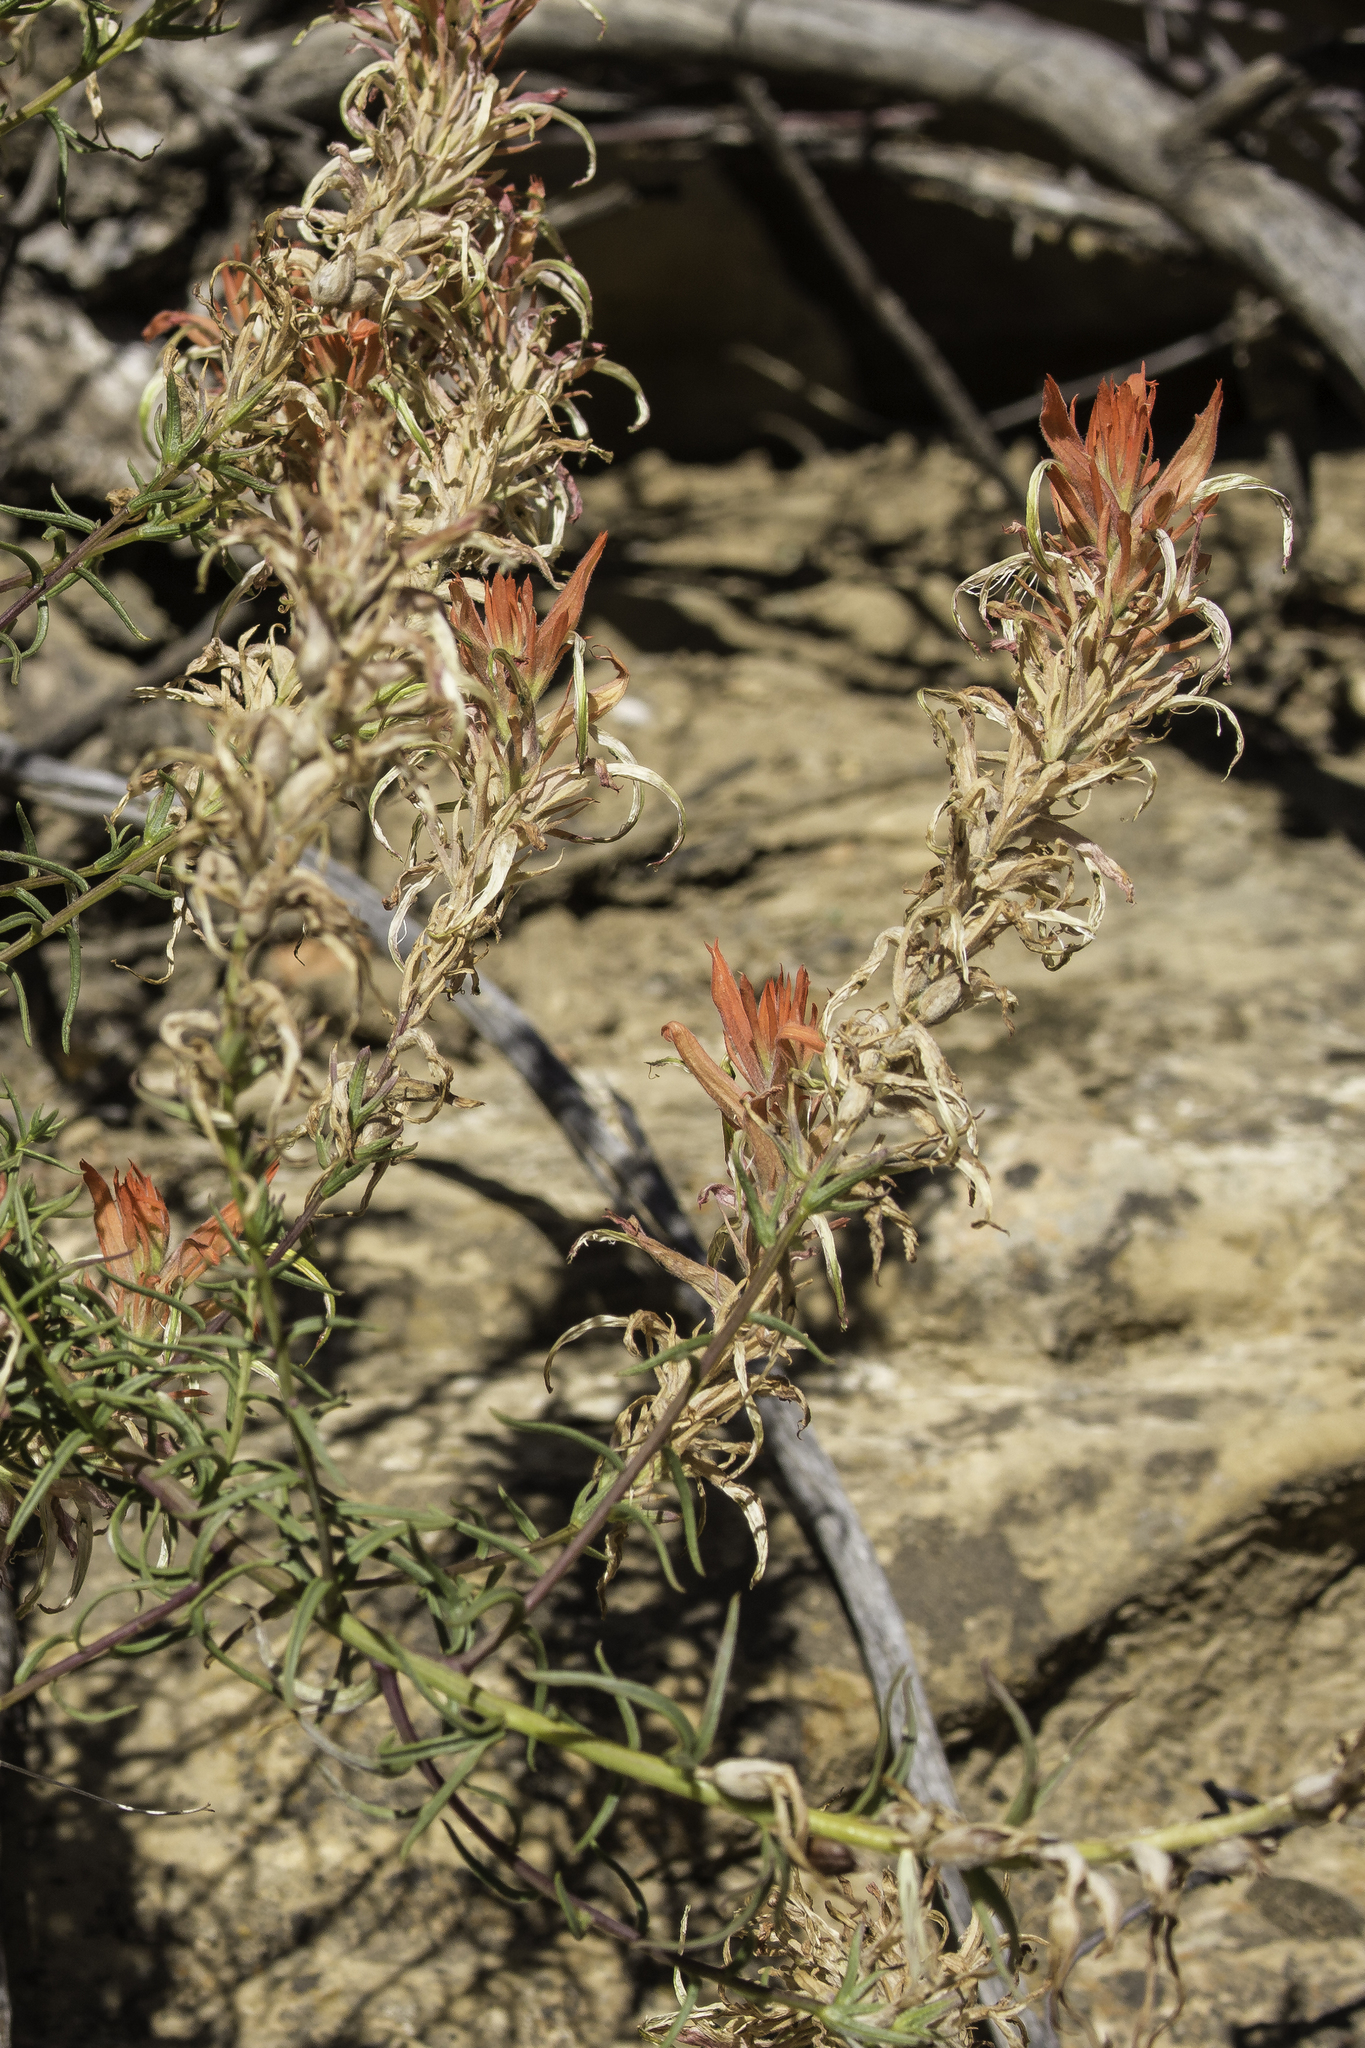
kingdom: Plantae
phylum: Tracheophyta
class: Magnoliopsida
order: Lamiales
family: Orobanchaceae
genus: Castilleja
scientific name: Castilleja linariifolia
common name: Wyoming paintbrush
